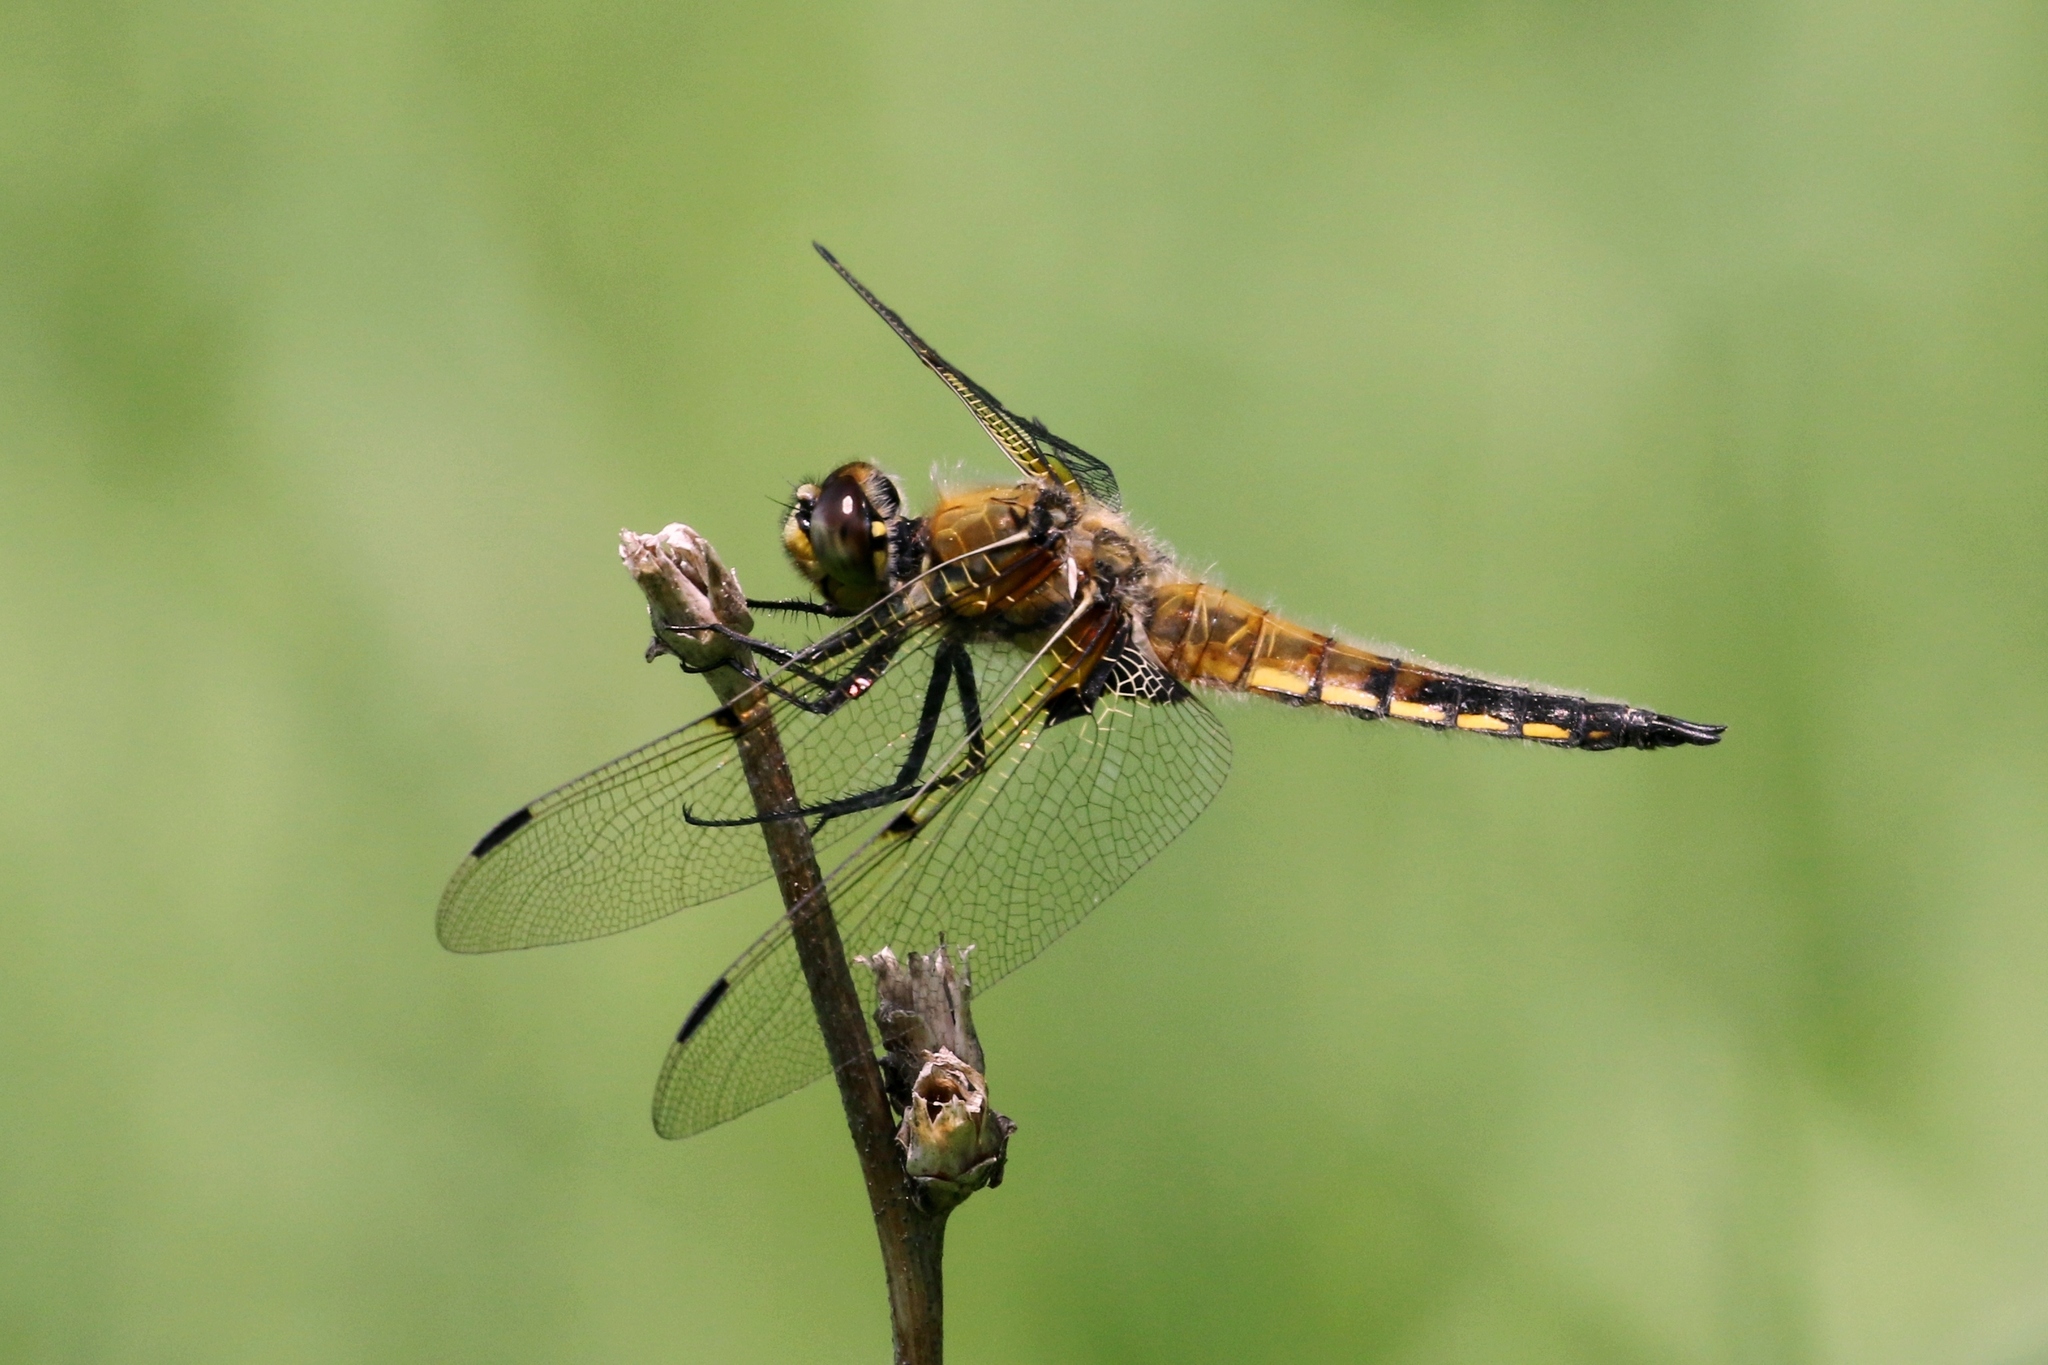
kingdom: Animalia
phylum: Arthropoda
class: Insecta
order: Odonata
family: Libellulidae
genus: Libellula
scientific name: Libellula quadrimaculata
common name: Four-spotted chaser
